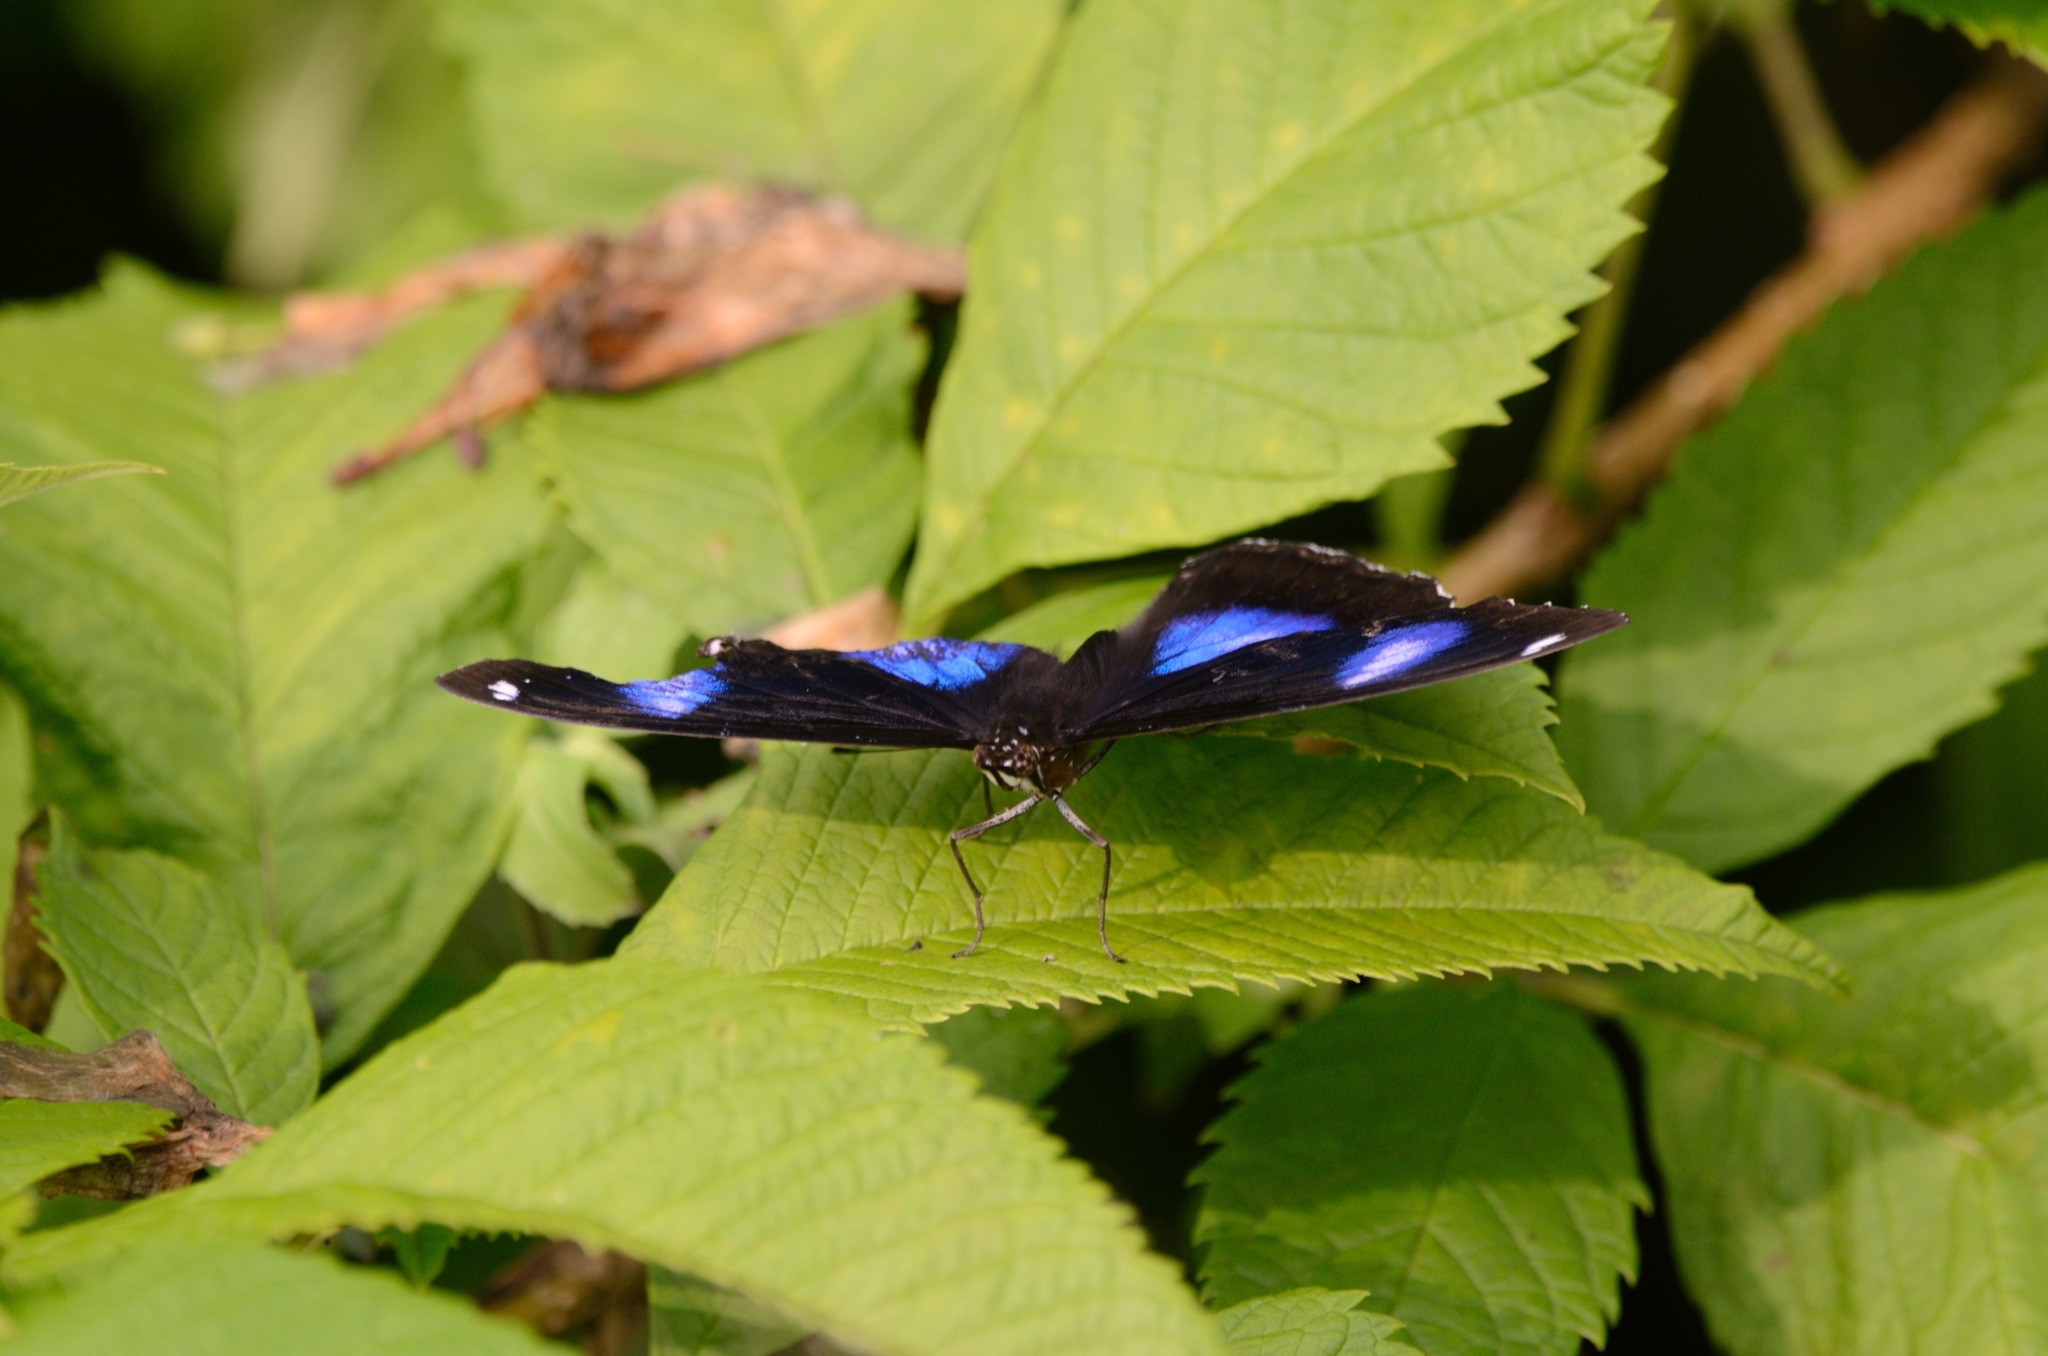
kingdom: Animalia
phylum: Arthropoda
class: Insecta
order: Lepidoptera
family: Nymphalidae
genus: Hypolimnas
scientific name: Hypolimnas bolina
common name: Great eggfly
